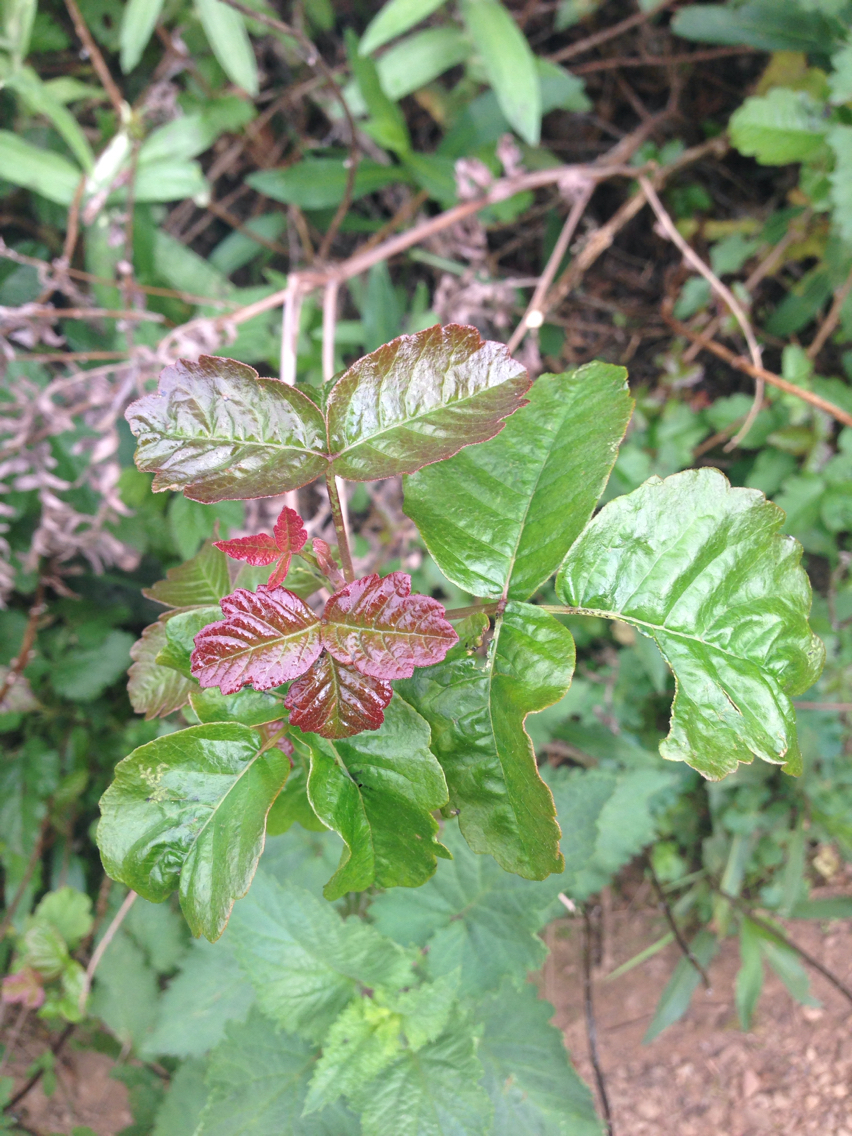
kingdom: Plantae
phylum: Tracheophyta
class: Magnoliopsida
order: Sapindales
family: Anacardiaceae
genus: Toxicodendron
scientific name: Toxicodendron diversilobum
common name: Pacific poison-oak
